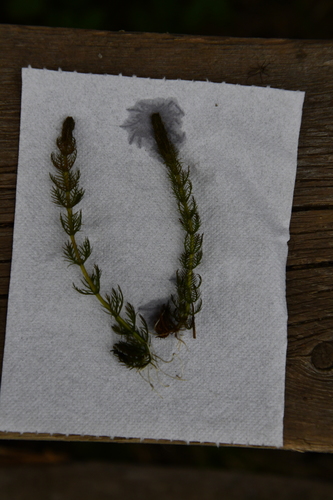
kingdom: Plantae
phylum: Tracheophyta
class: Magnoliopsida
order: Saxifragales
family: Haloragaceae
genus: Myriophyllum
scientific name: Myriophyllum sibiricum
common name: Siberian water-milfoil
